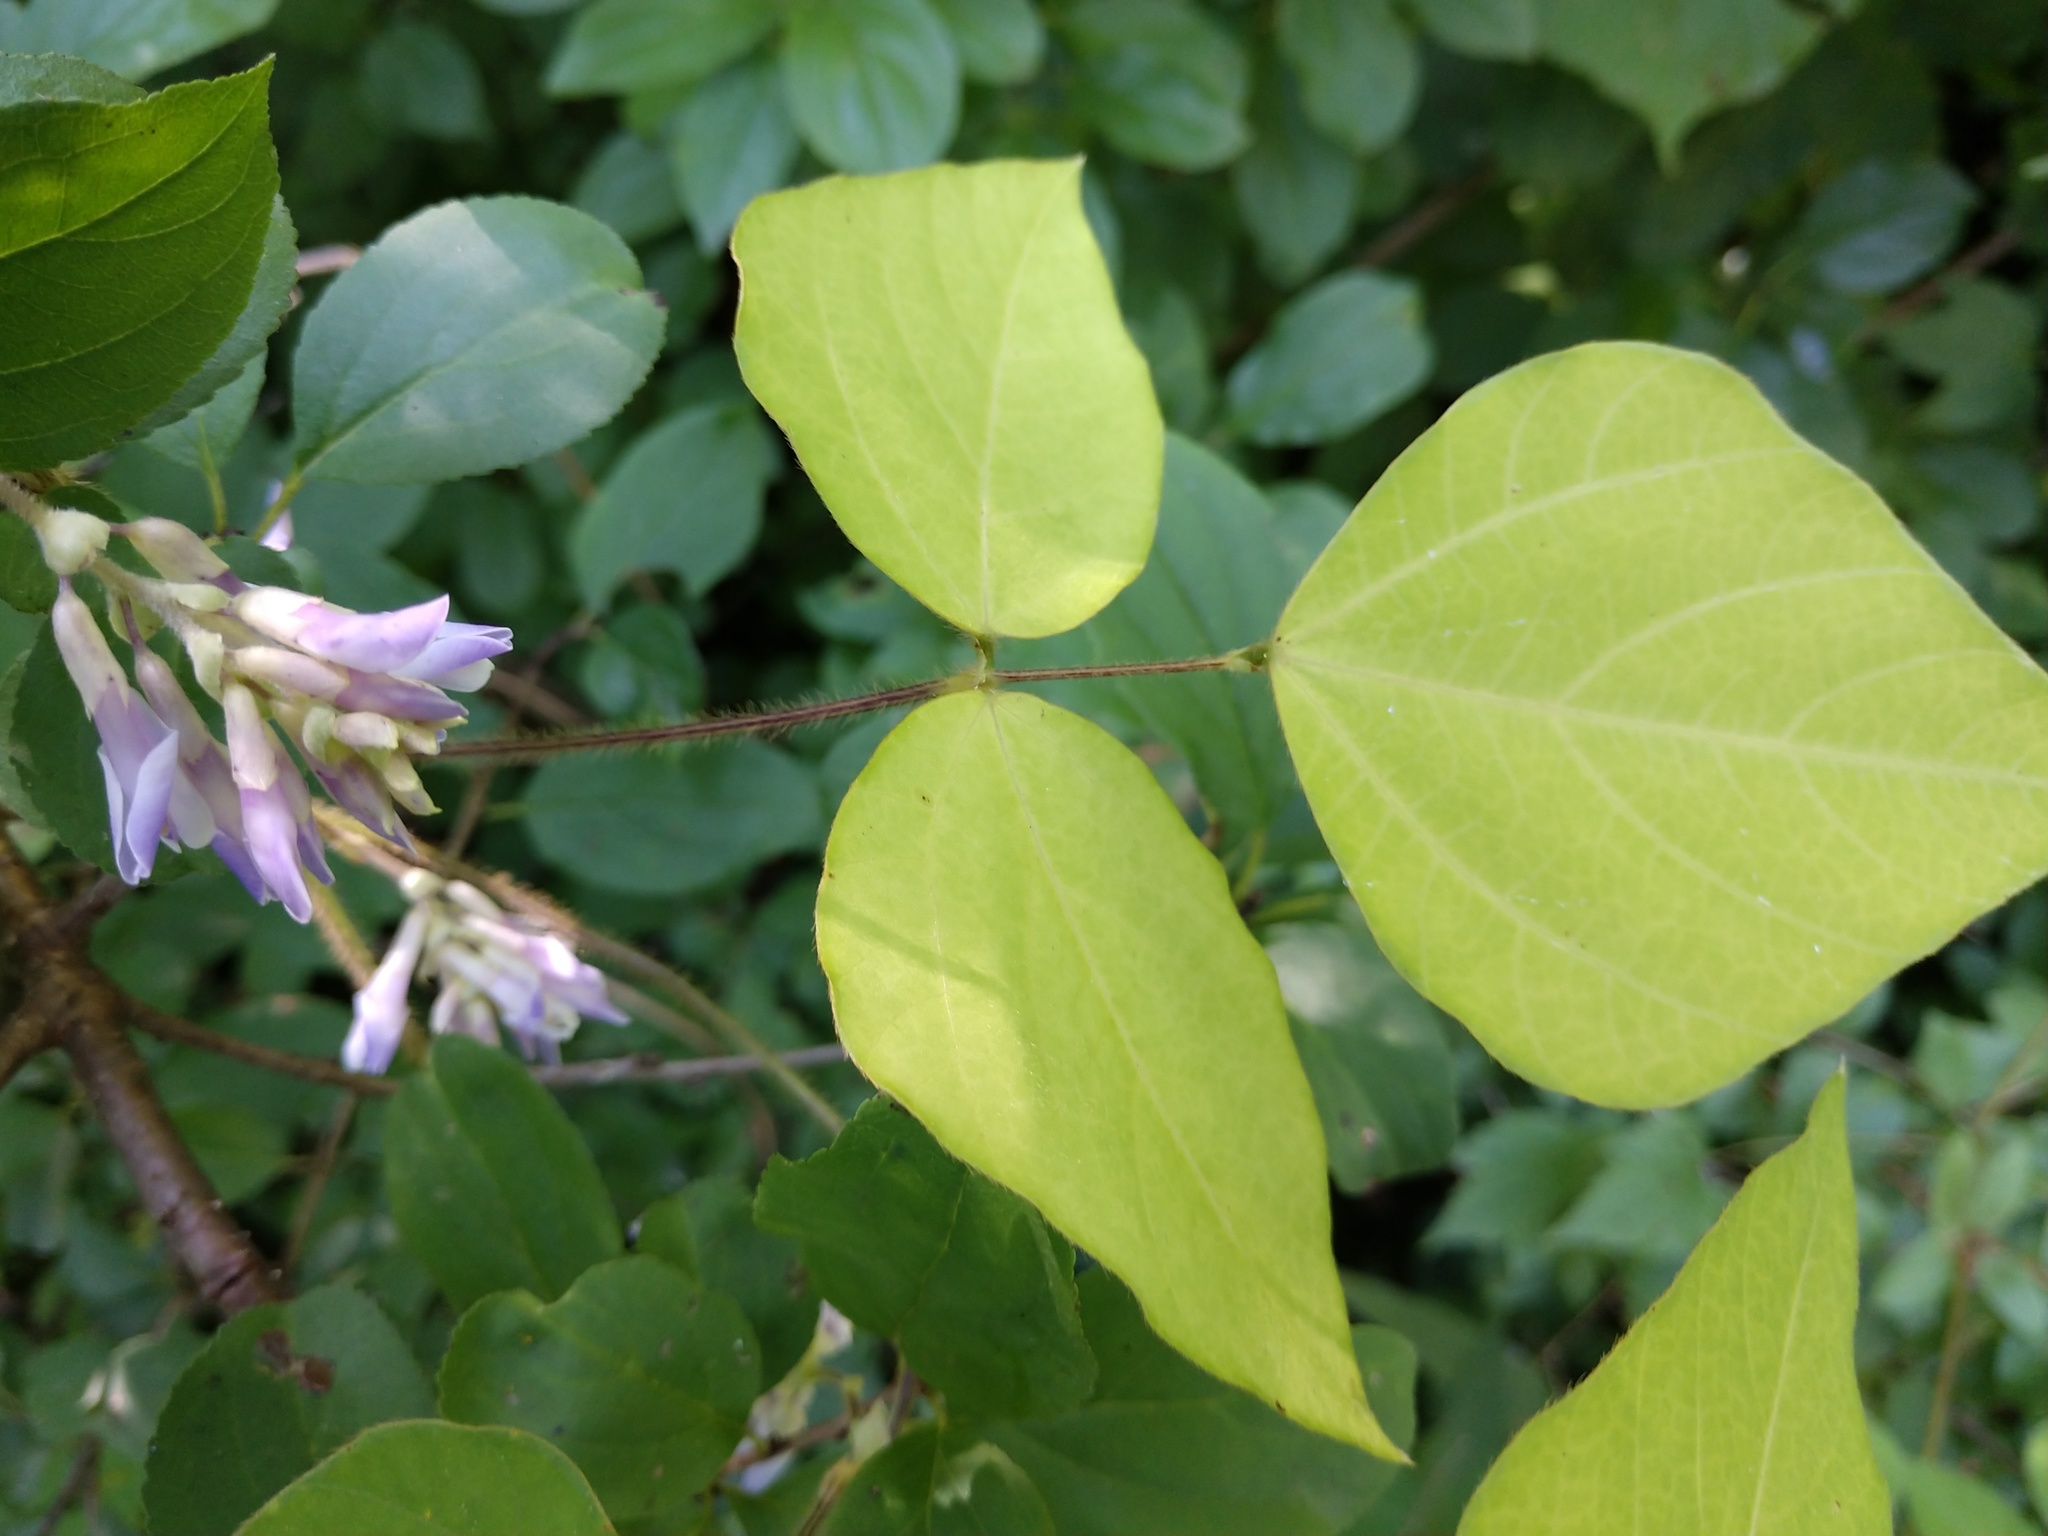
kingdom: Plantae
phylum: Tracheophyta
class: Magnoliopsida
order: Fabales
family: Fabaceae
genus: Amphicarpaea
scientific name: Amphicarpaea bracteata
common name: American hog peanut
